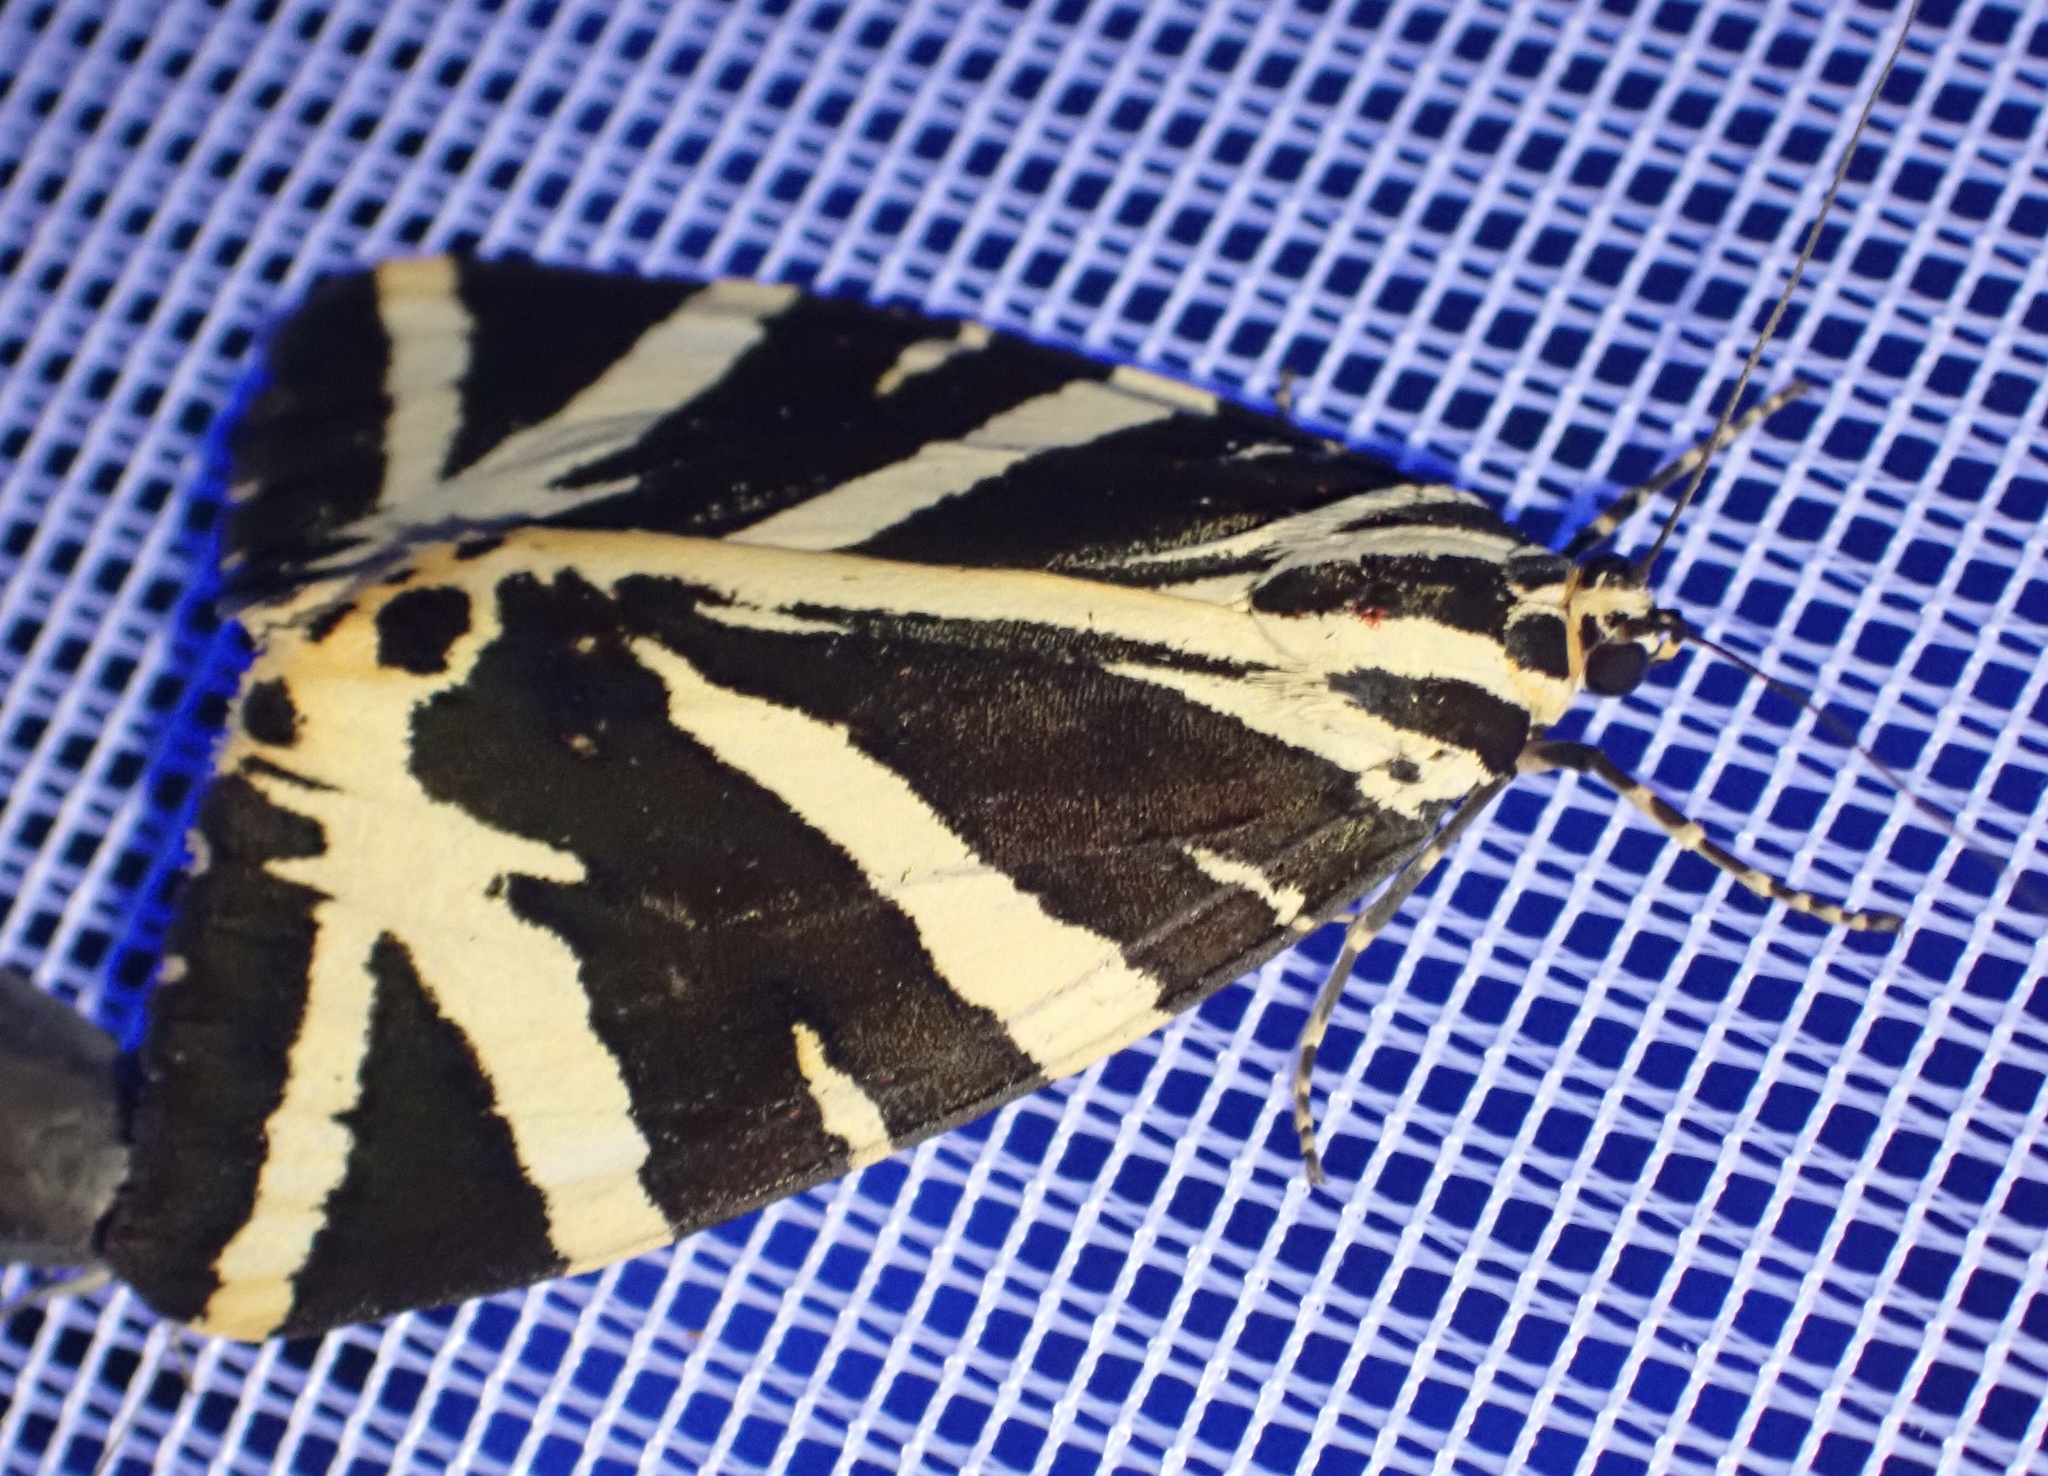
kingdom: Animalia
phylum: Arthropoda
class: Insecta
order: Lepidoptera
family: Erebidae
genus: Euplagia
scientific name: Euplagia quadripunctaria
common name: Jersey tiger
